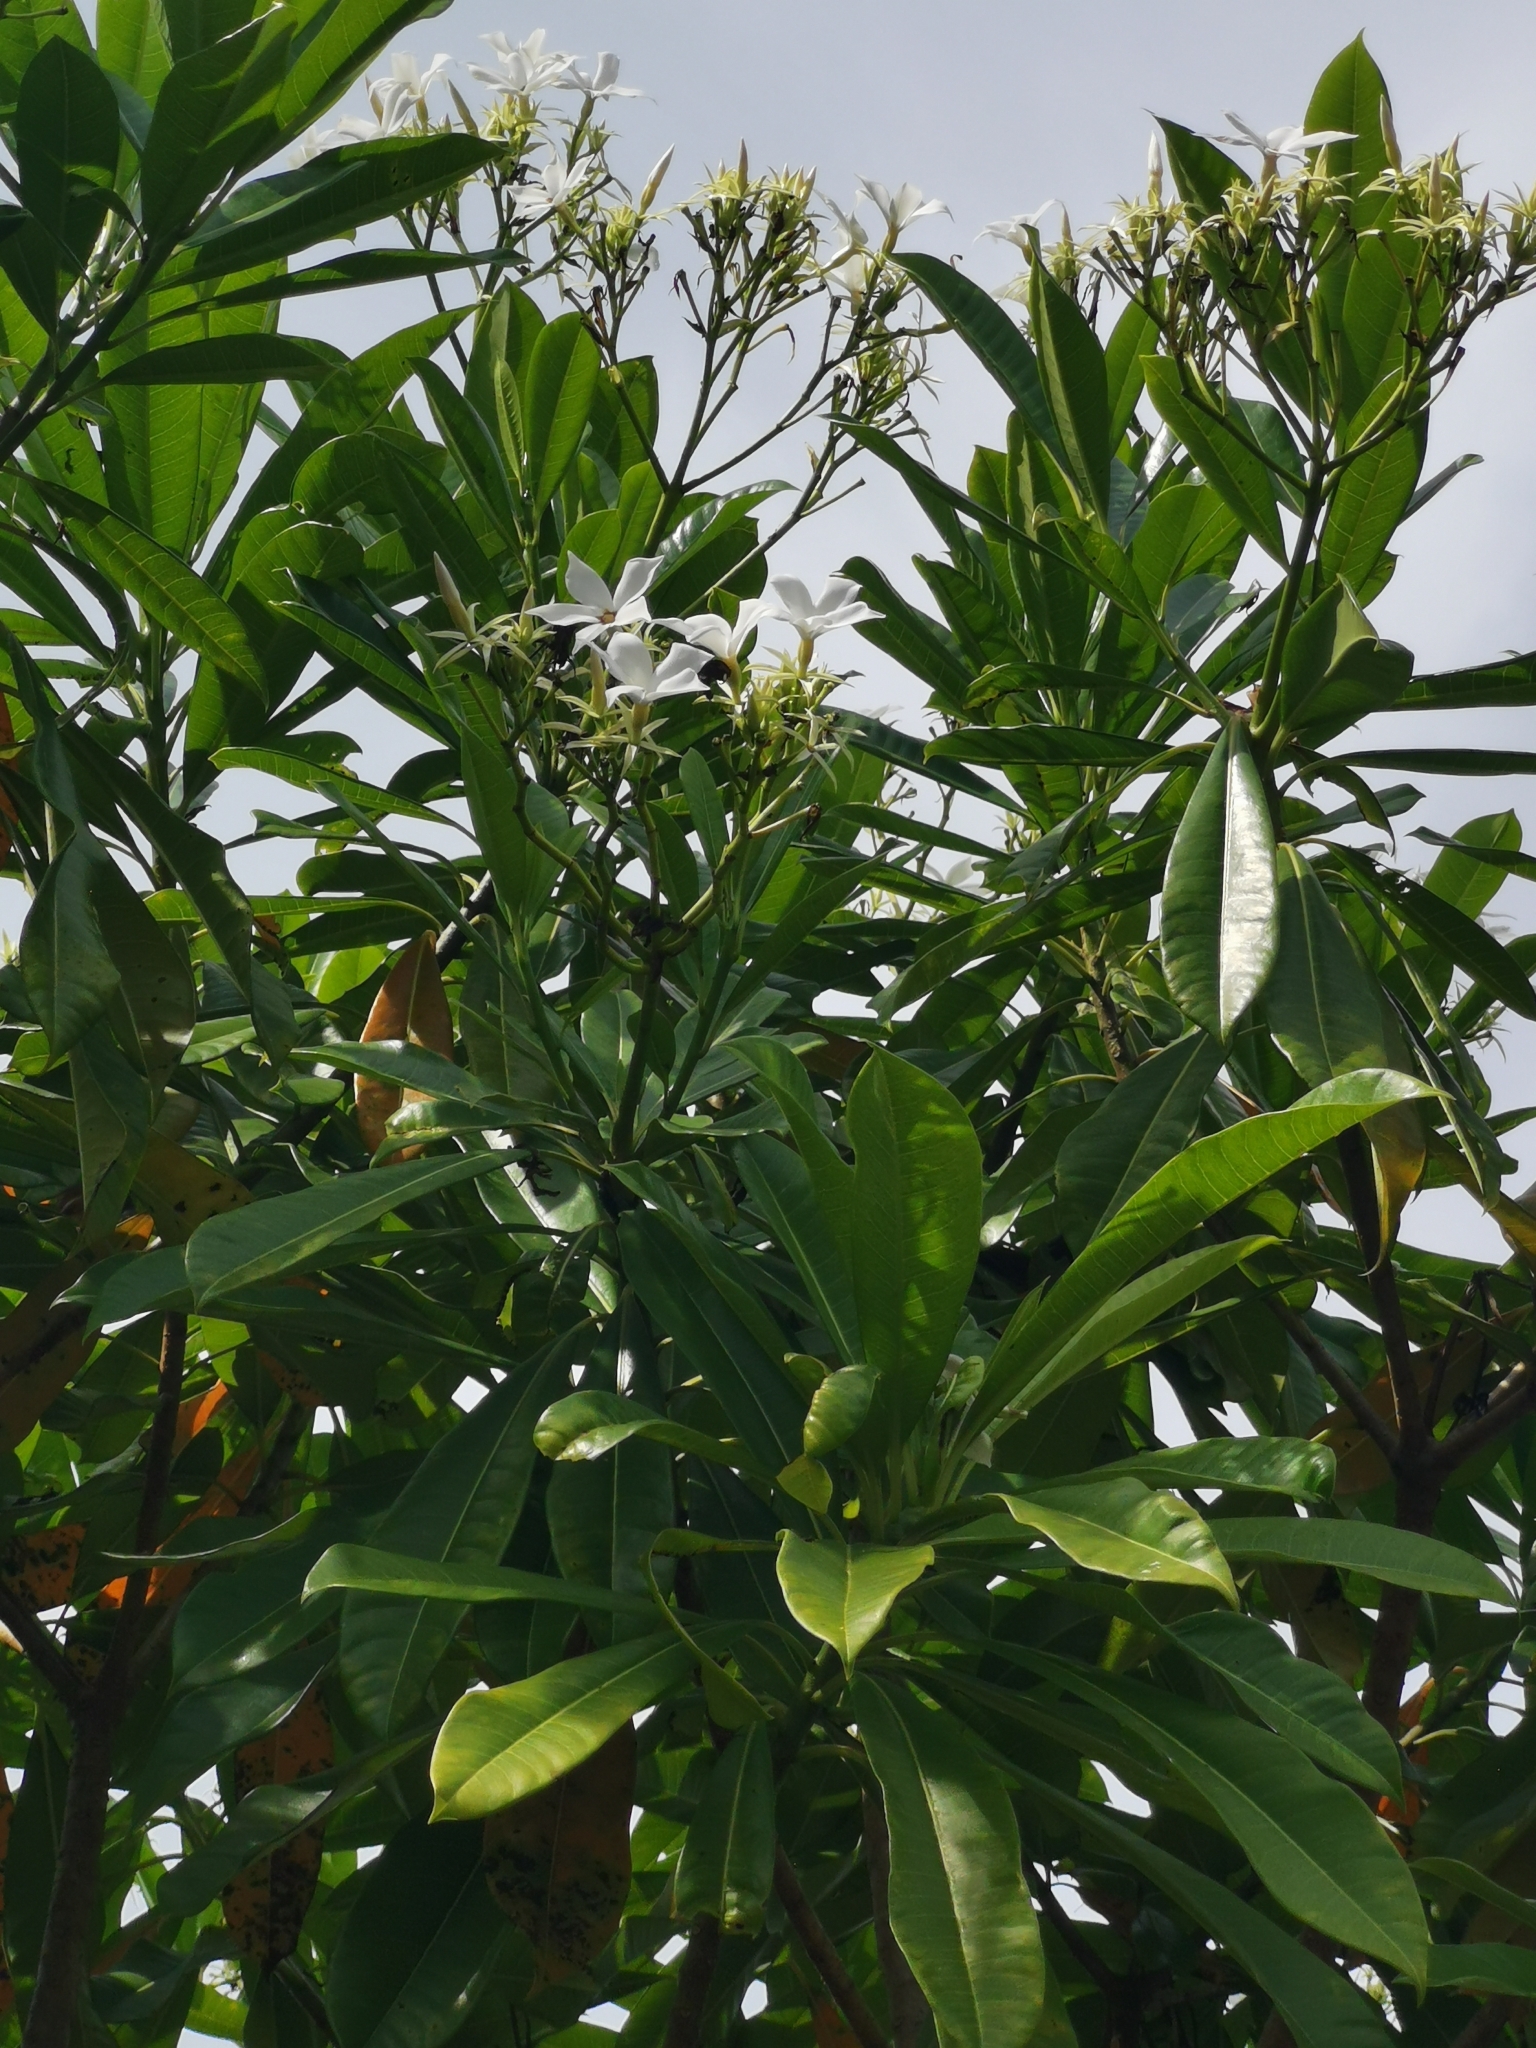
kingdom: Plantae
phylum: Tracheophyta
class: Magnoliopsida
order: Gentianales
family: Apocynaceae
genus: Cerbera
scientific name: Cerbera odollam
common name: Pong-pong
